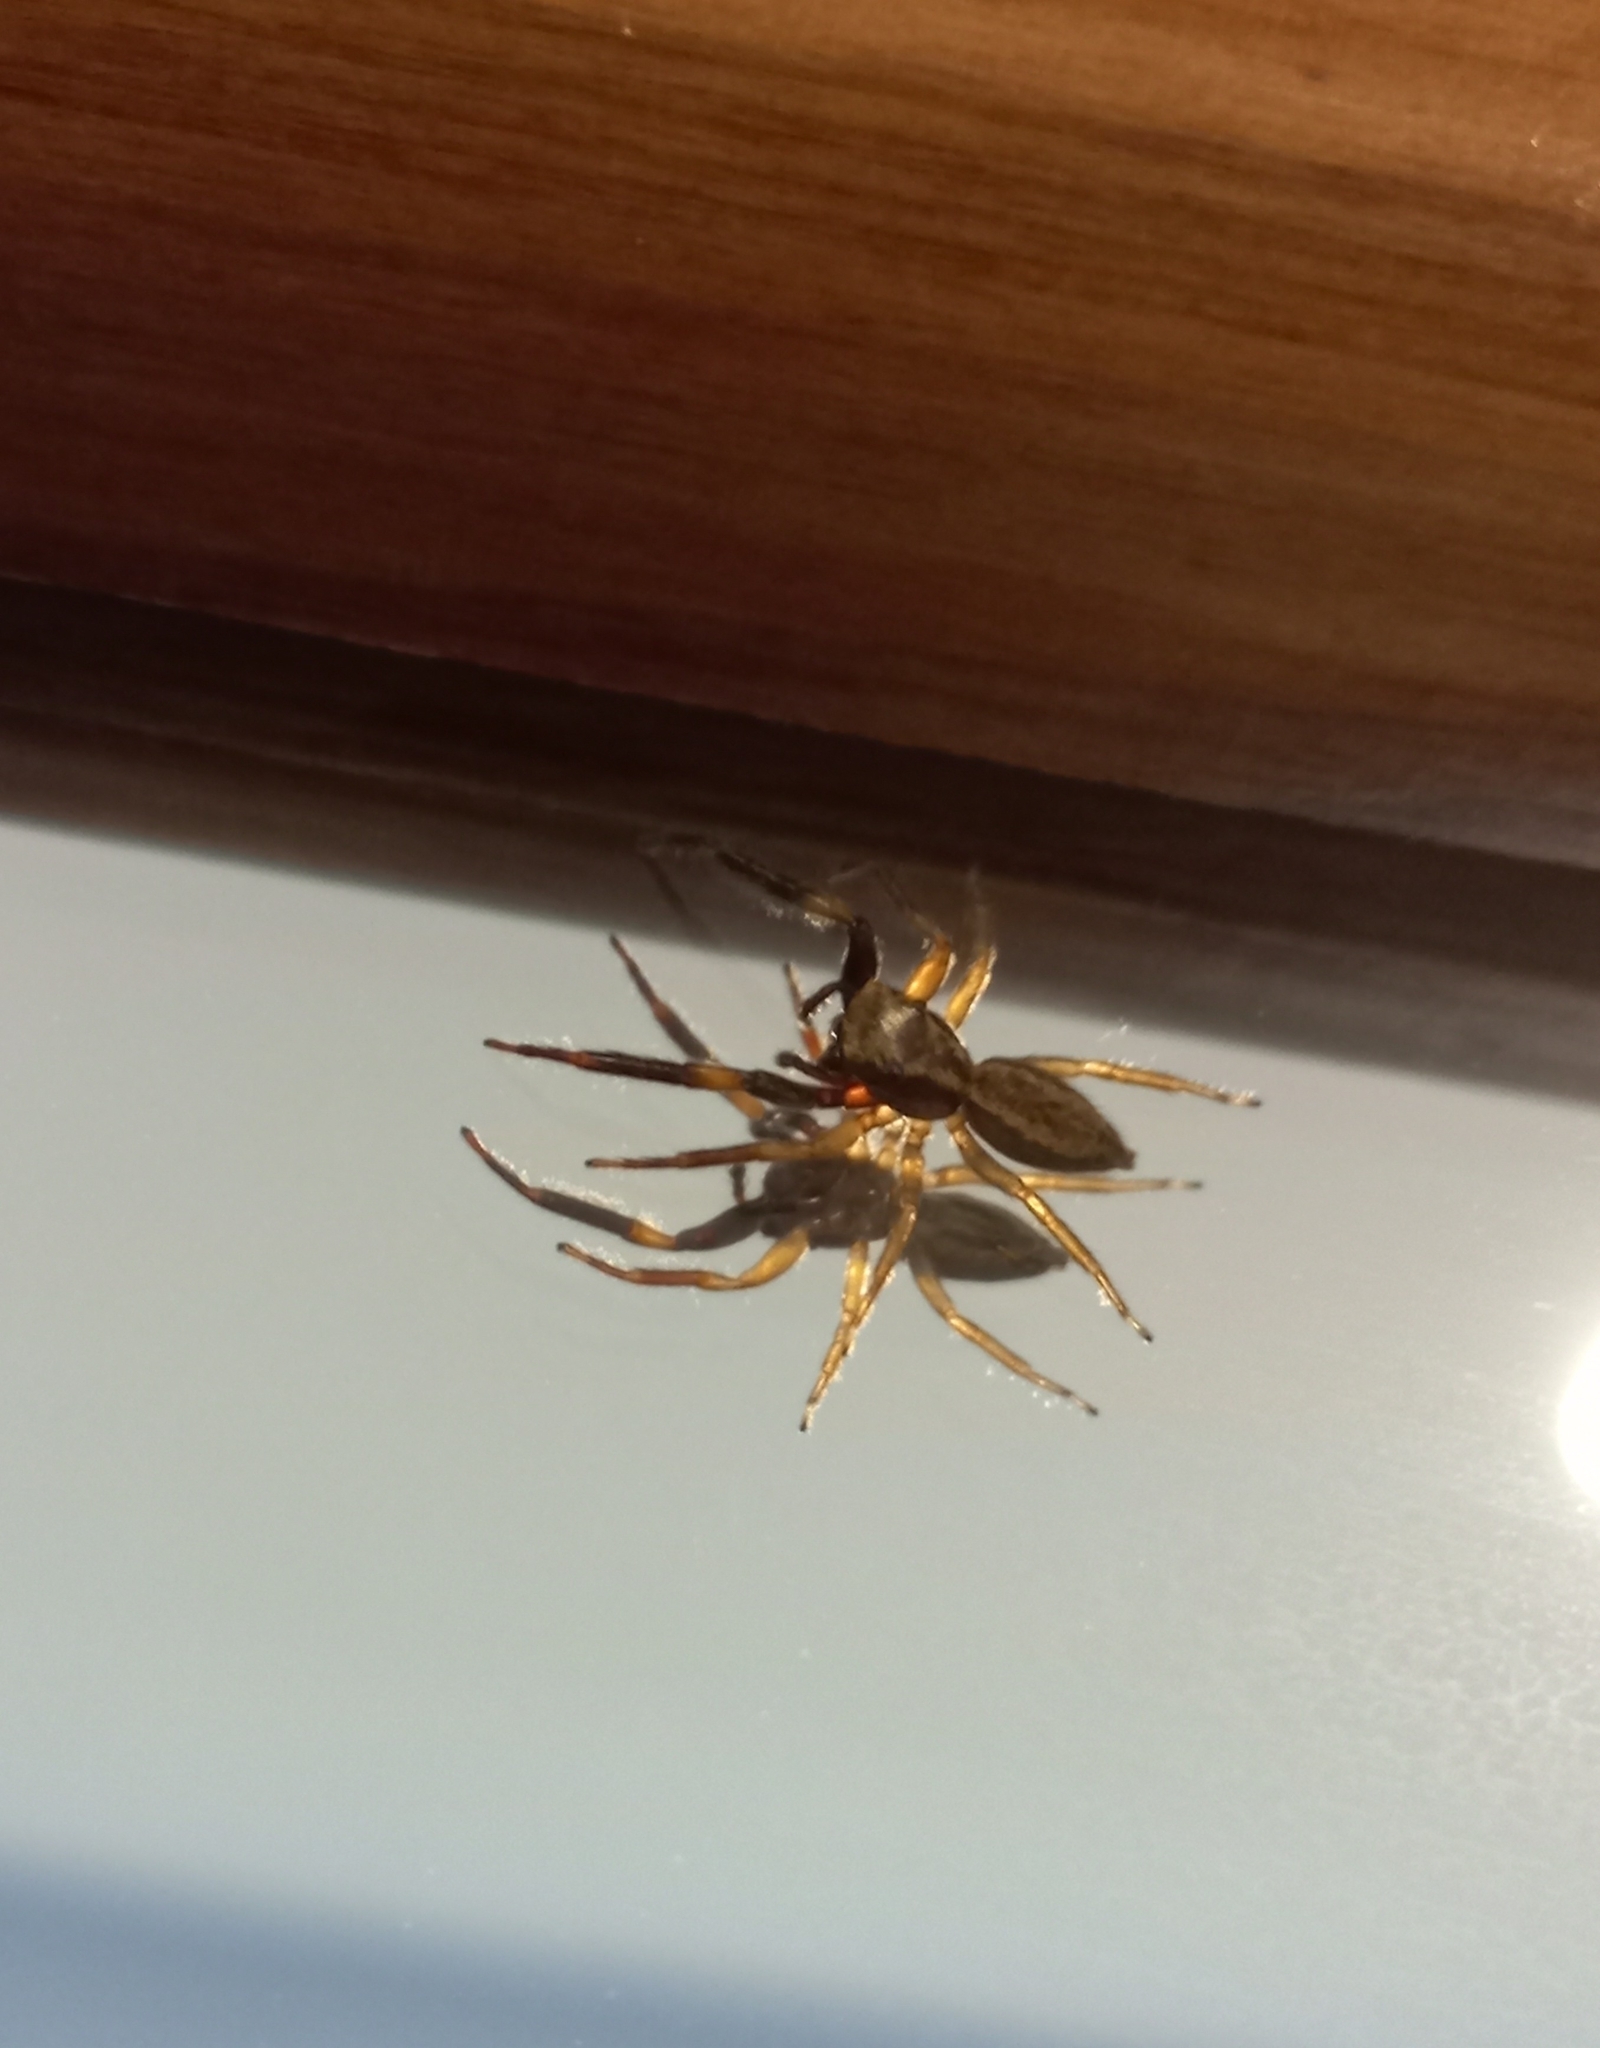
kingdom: Animalia
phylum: Arthropoda
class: Arachnida
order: Araneae
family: Salticidae
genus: Trite
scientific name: Trite auricoma
